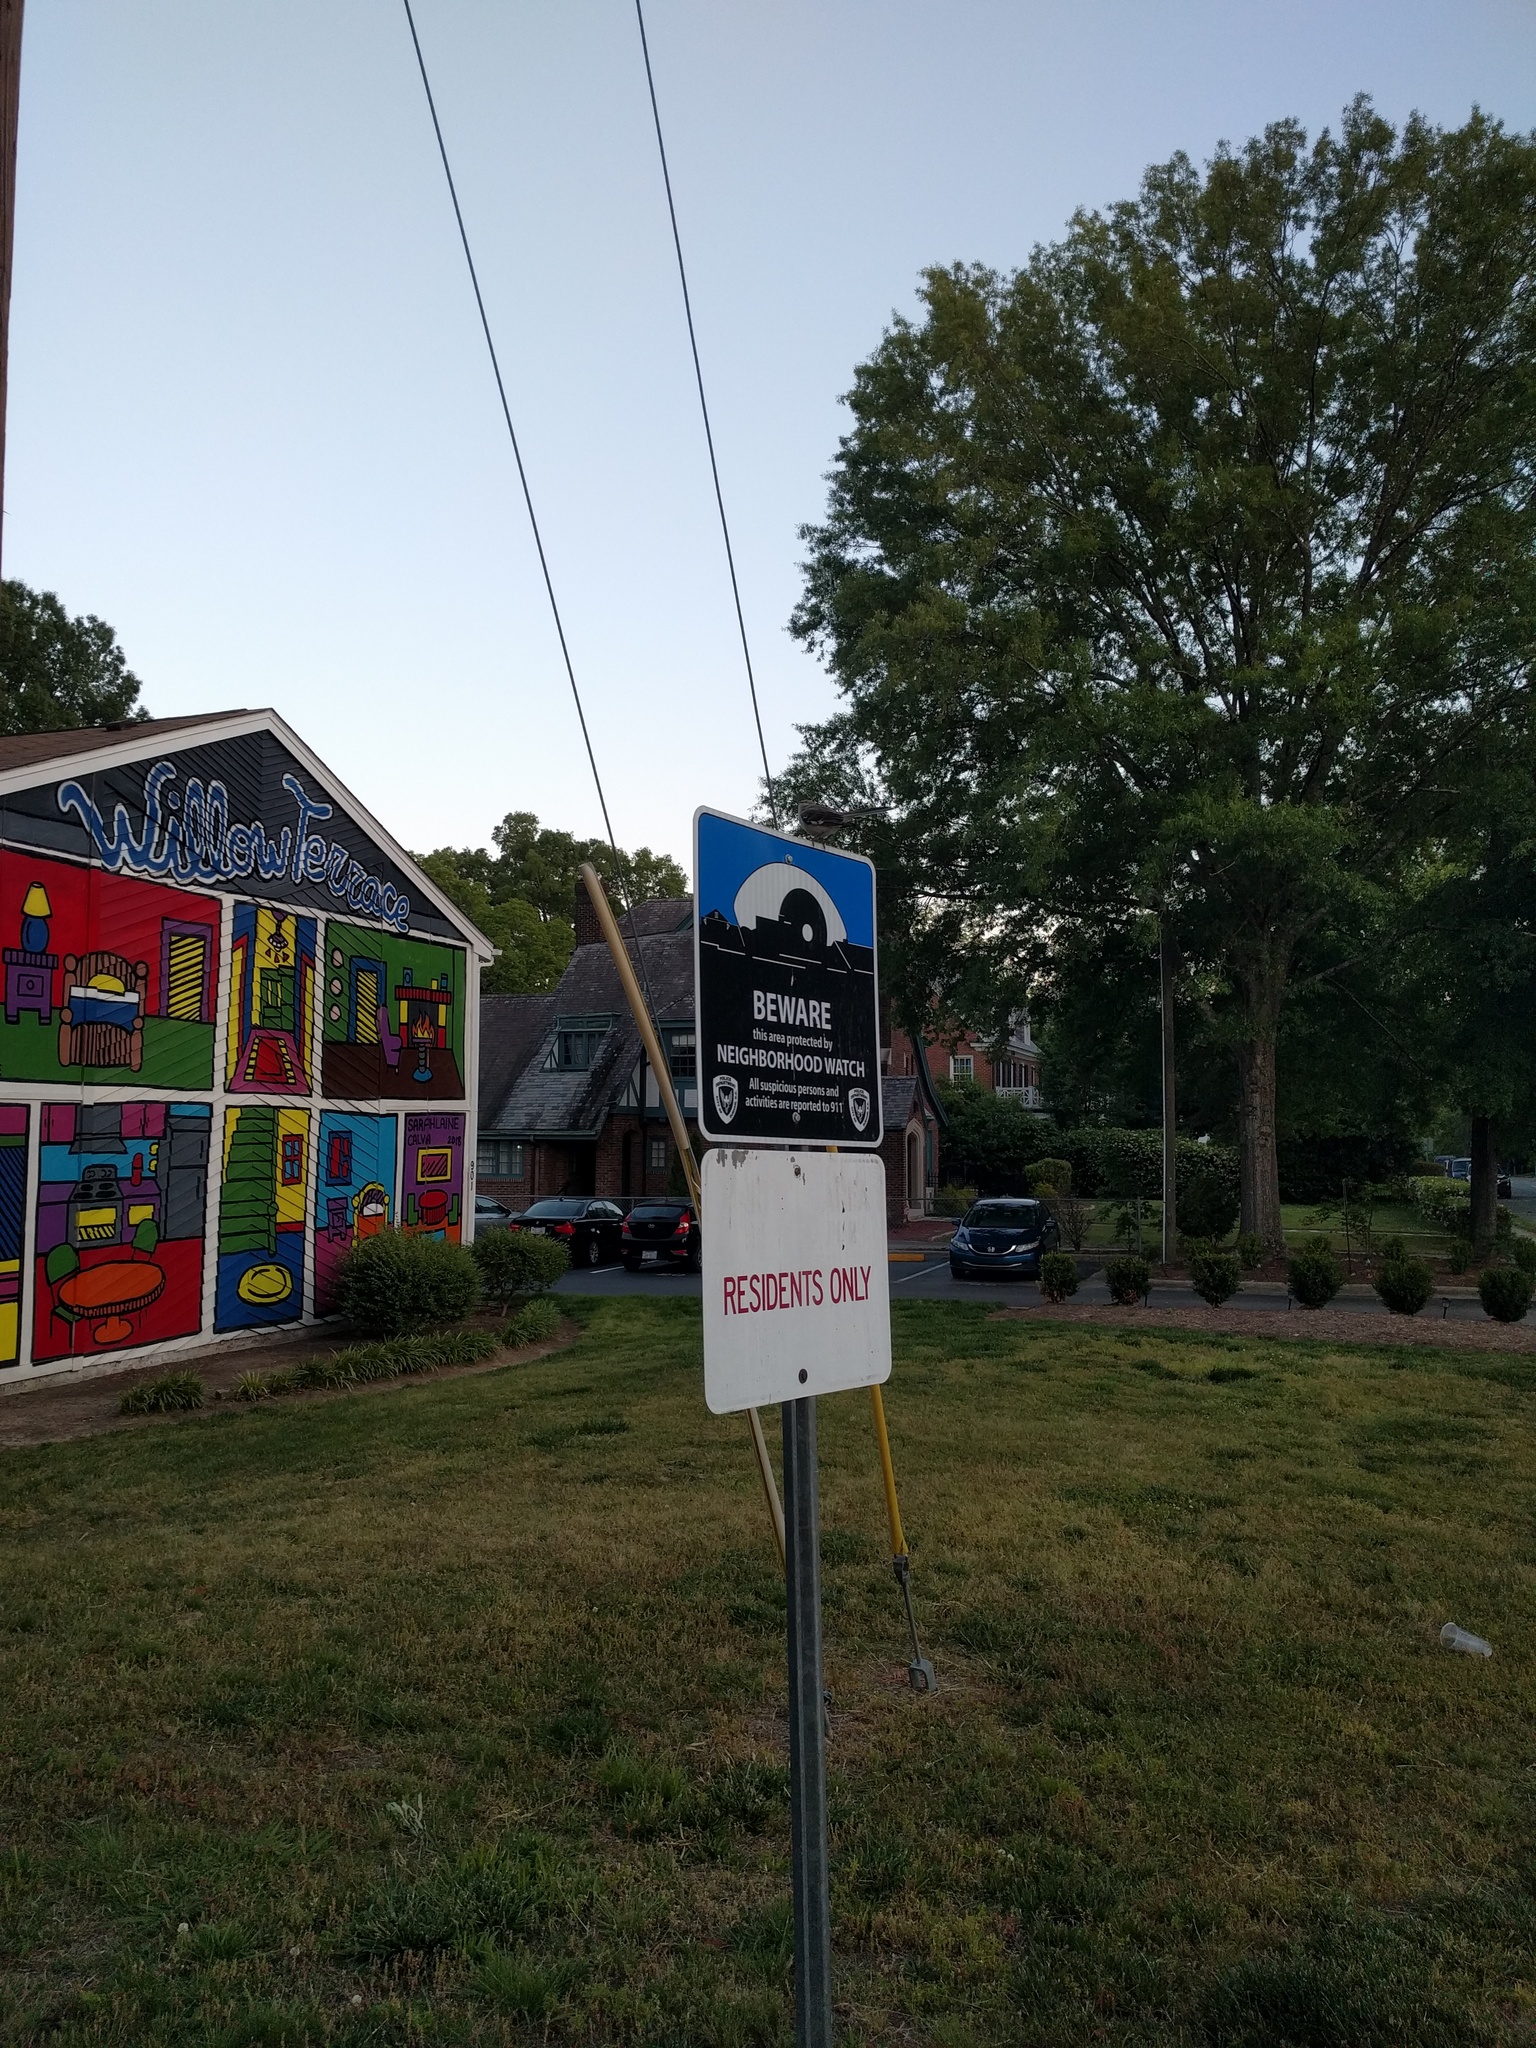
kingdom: Animalia
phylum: Chordata
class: Aves
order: Passeriformes
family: Mimidae
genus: Mimus
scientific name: Mimus polyglottos
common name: Northern mockingbird
